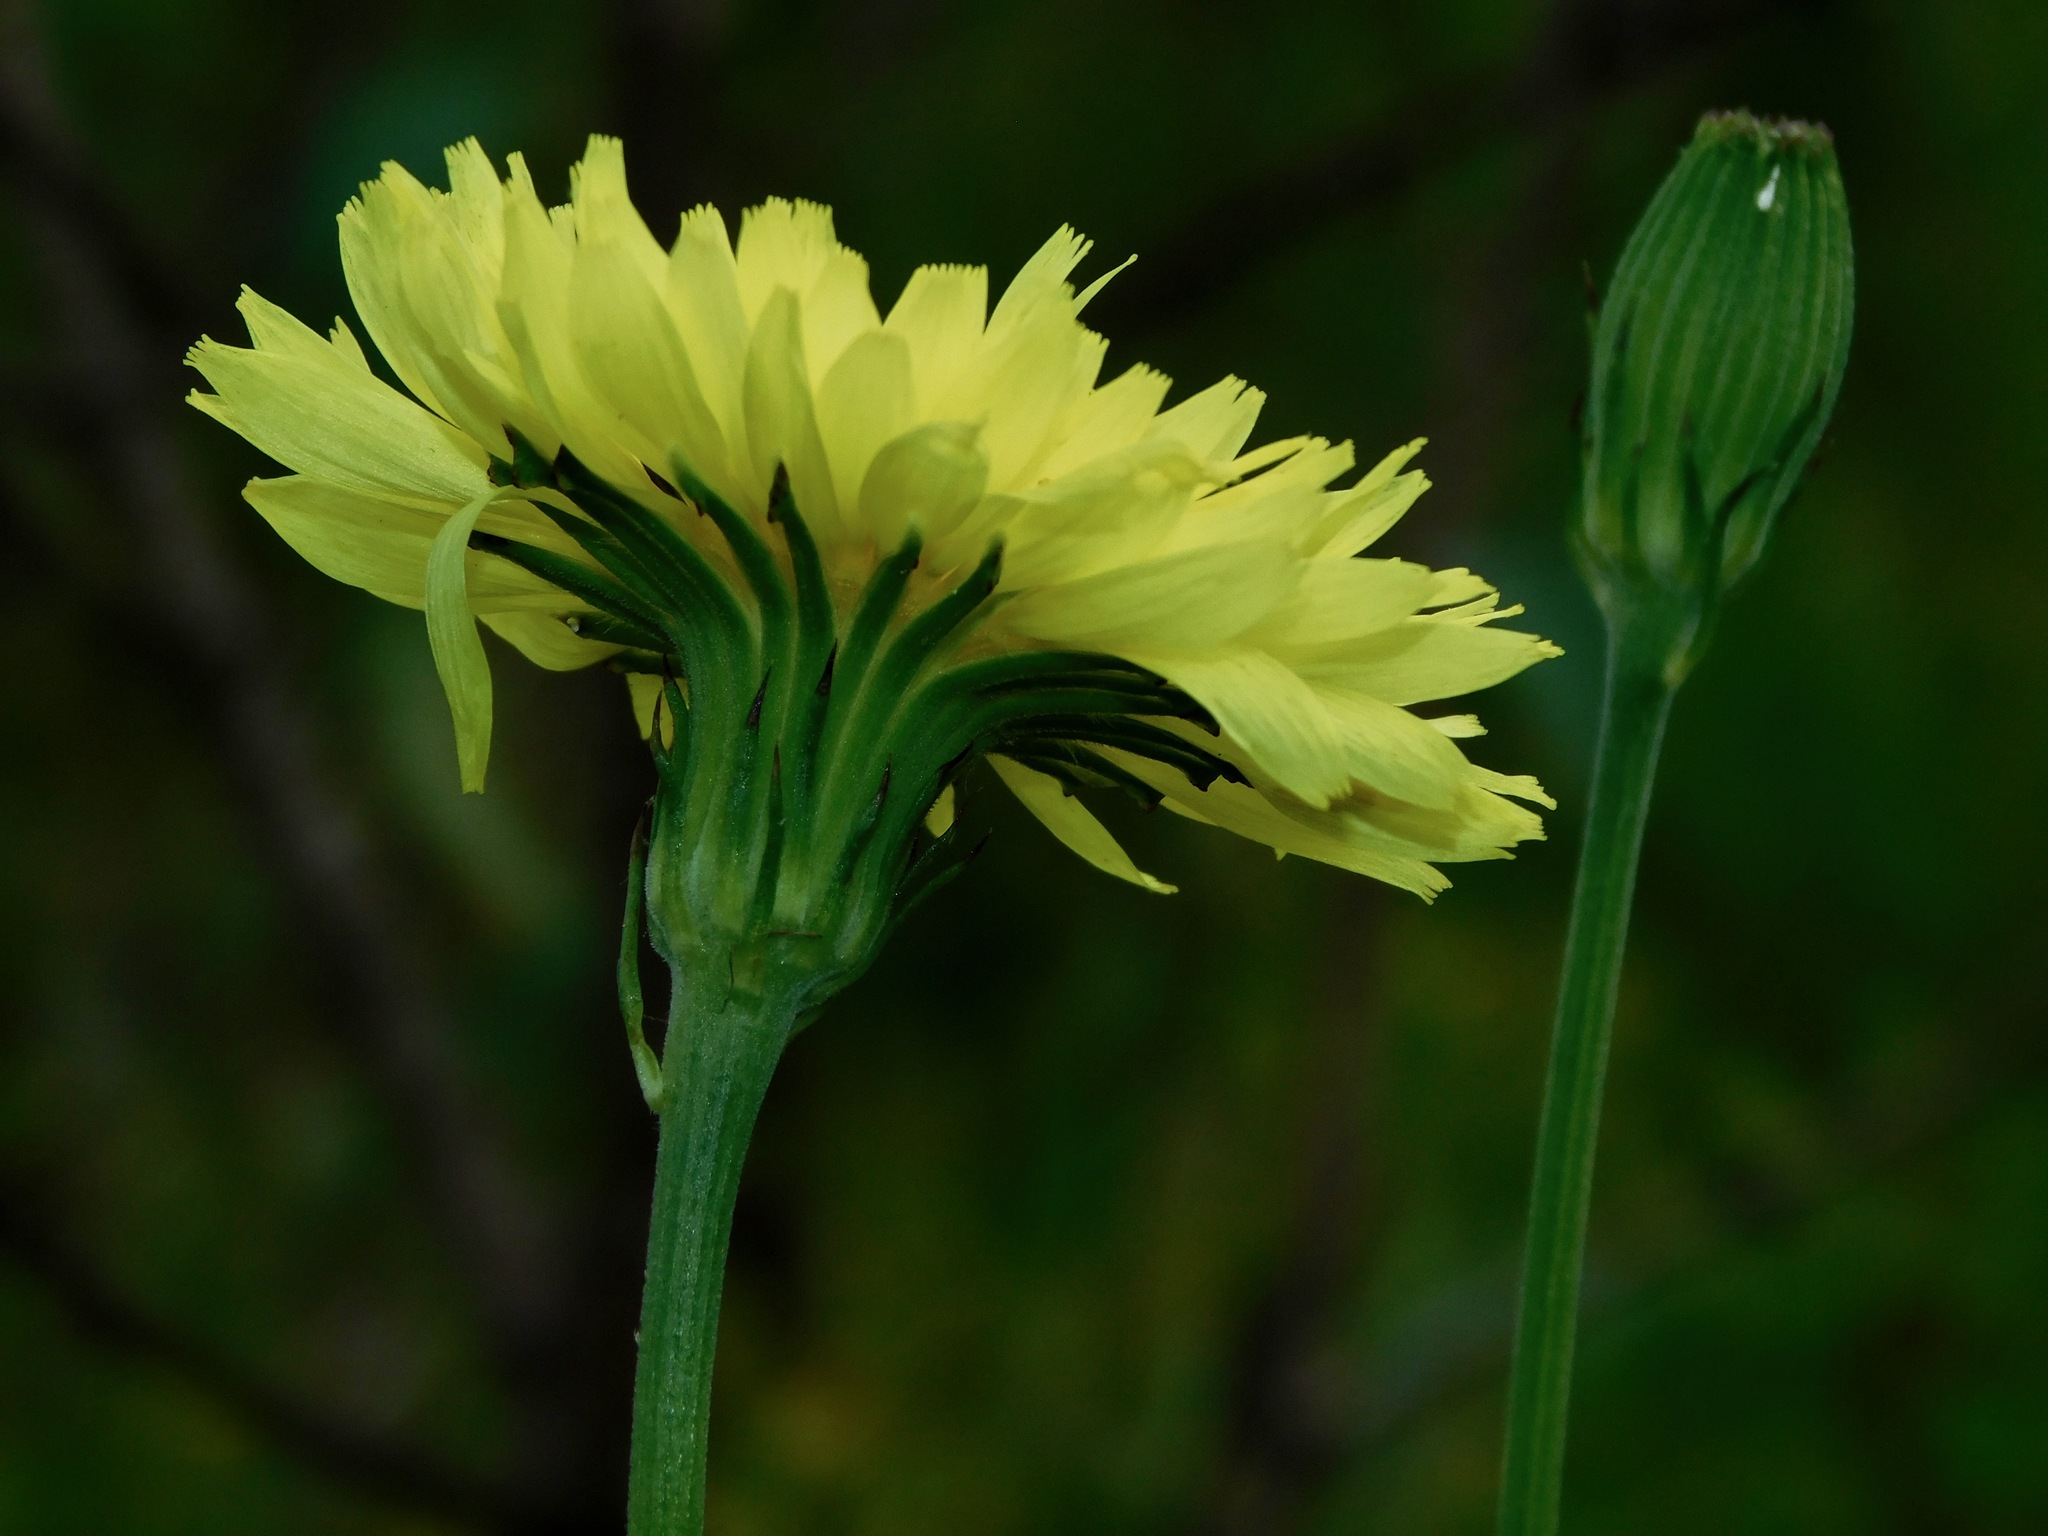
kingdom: Plantae
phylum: Tracheophyta
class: Magnoliopsida
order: Asterales
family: Asteraceae
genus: Pyrrhopappus
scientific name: Pyrrhopappus carolinianus
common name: Carolina desert-chicory
